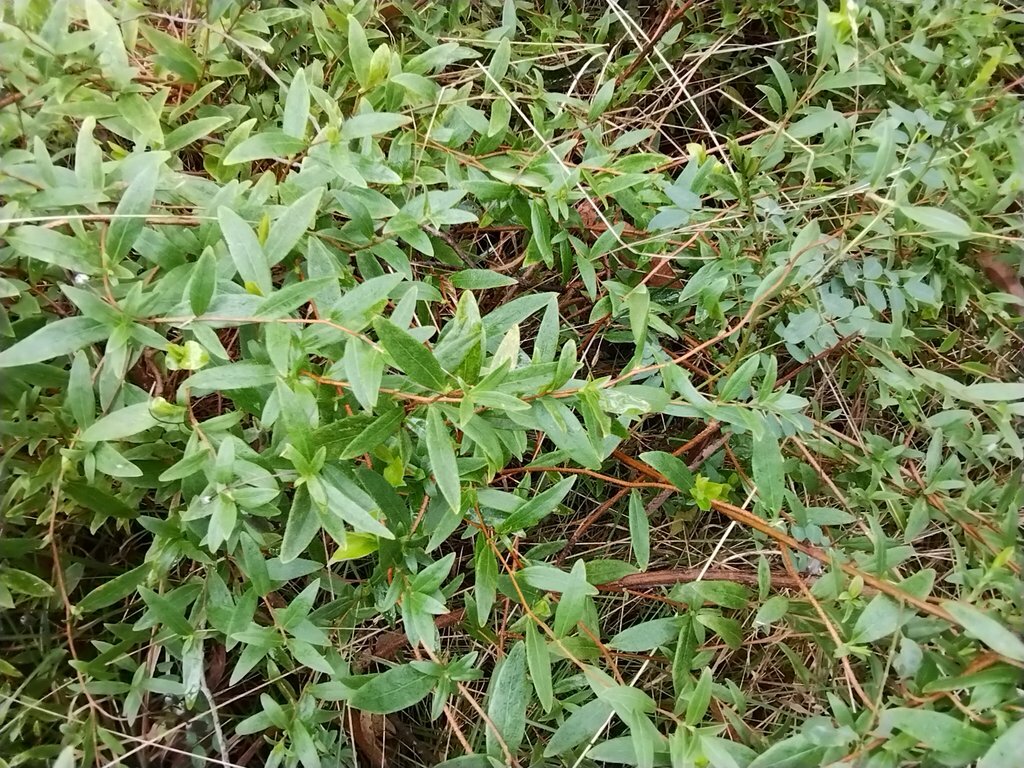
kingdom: Plantae
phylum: Tracheophyta
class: Magnoliopsida
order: Apiales
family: Pittosporaceae
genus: Billardiera
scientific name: Billardiera fusiformis
